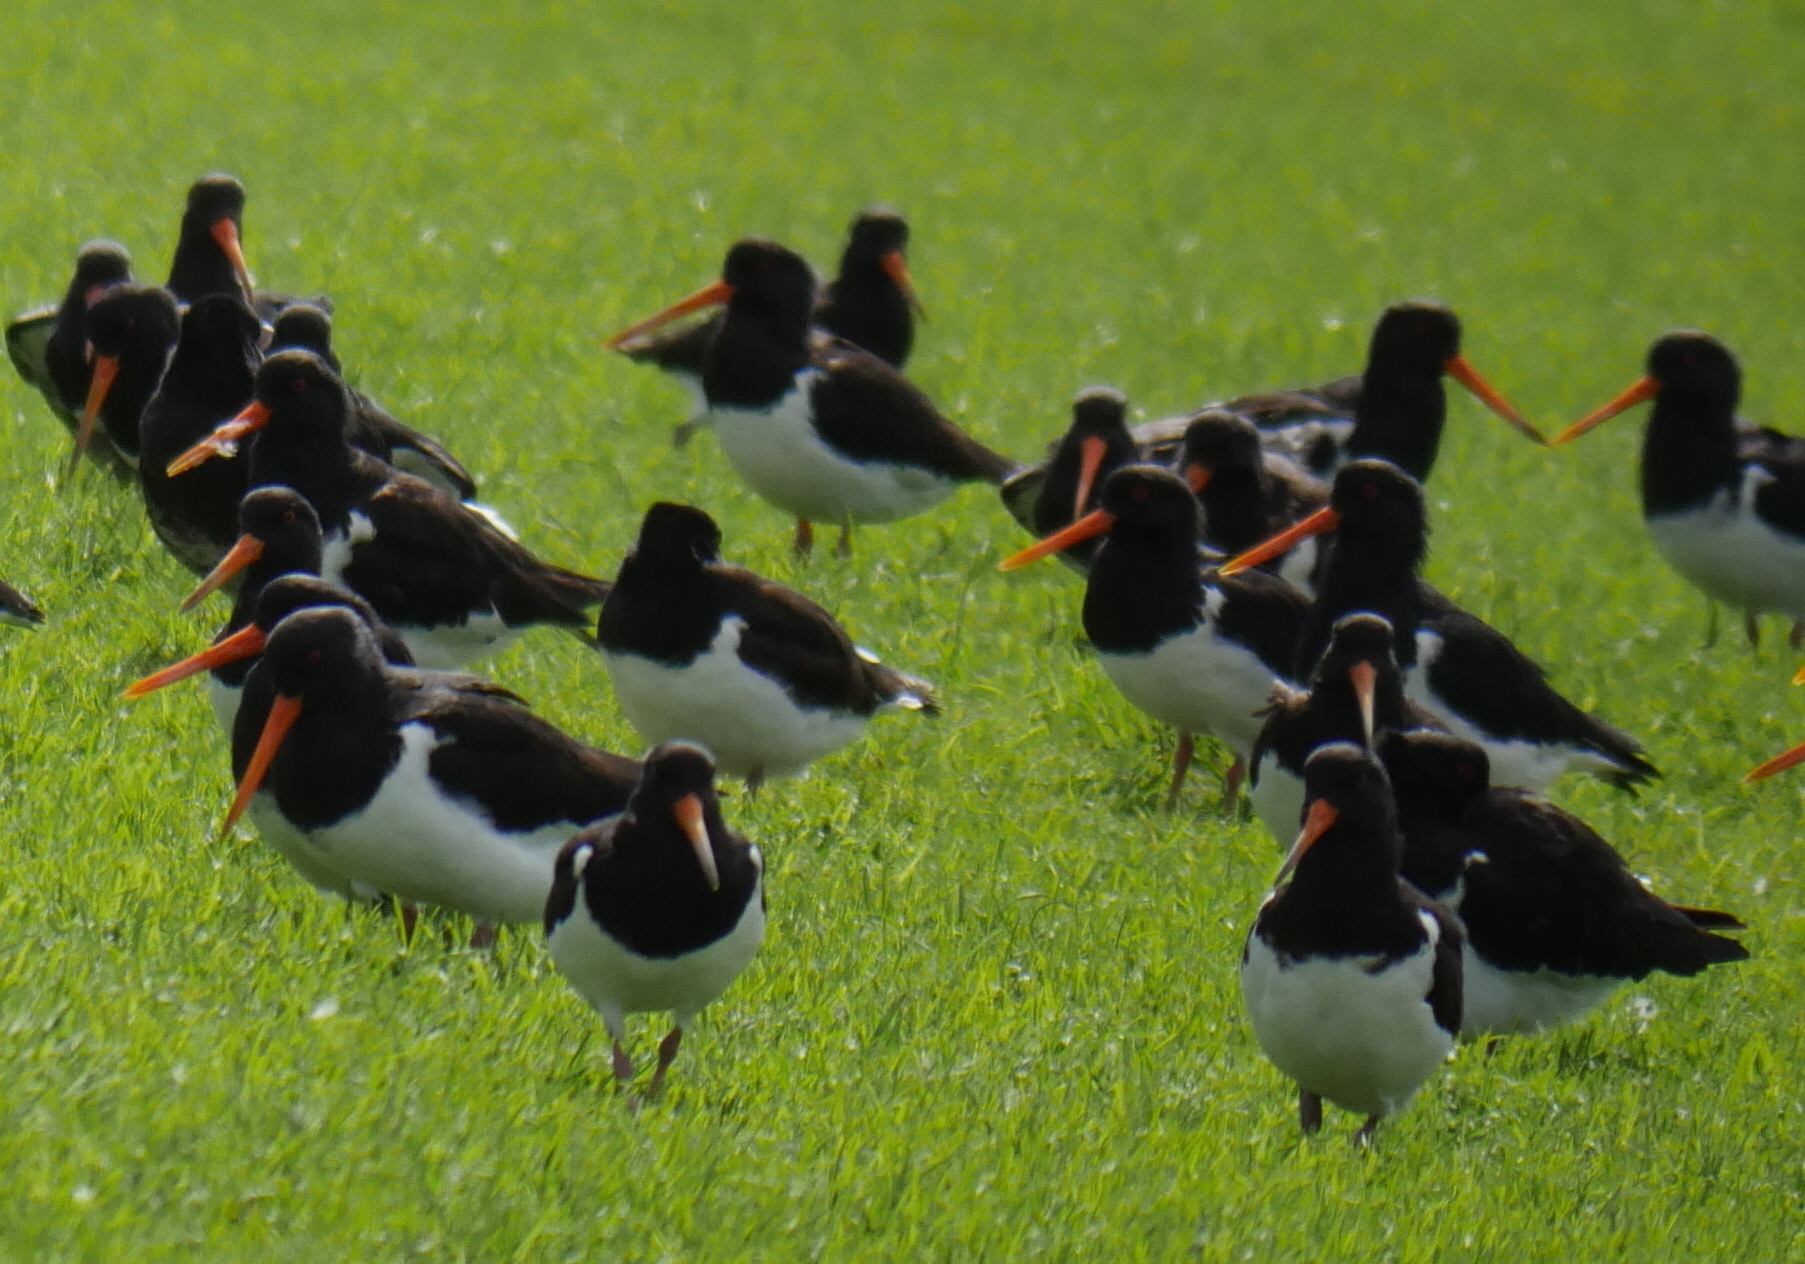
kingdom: Animalia
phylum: Chordata
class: Aves
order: Charadriiformes
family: Haematopodidae
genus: Haematopus
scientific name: Haematopus finschi
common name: South island oystercatcher
